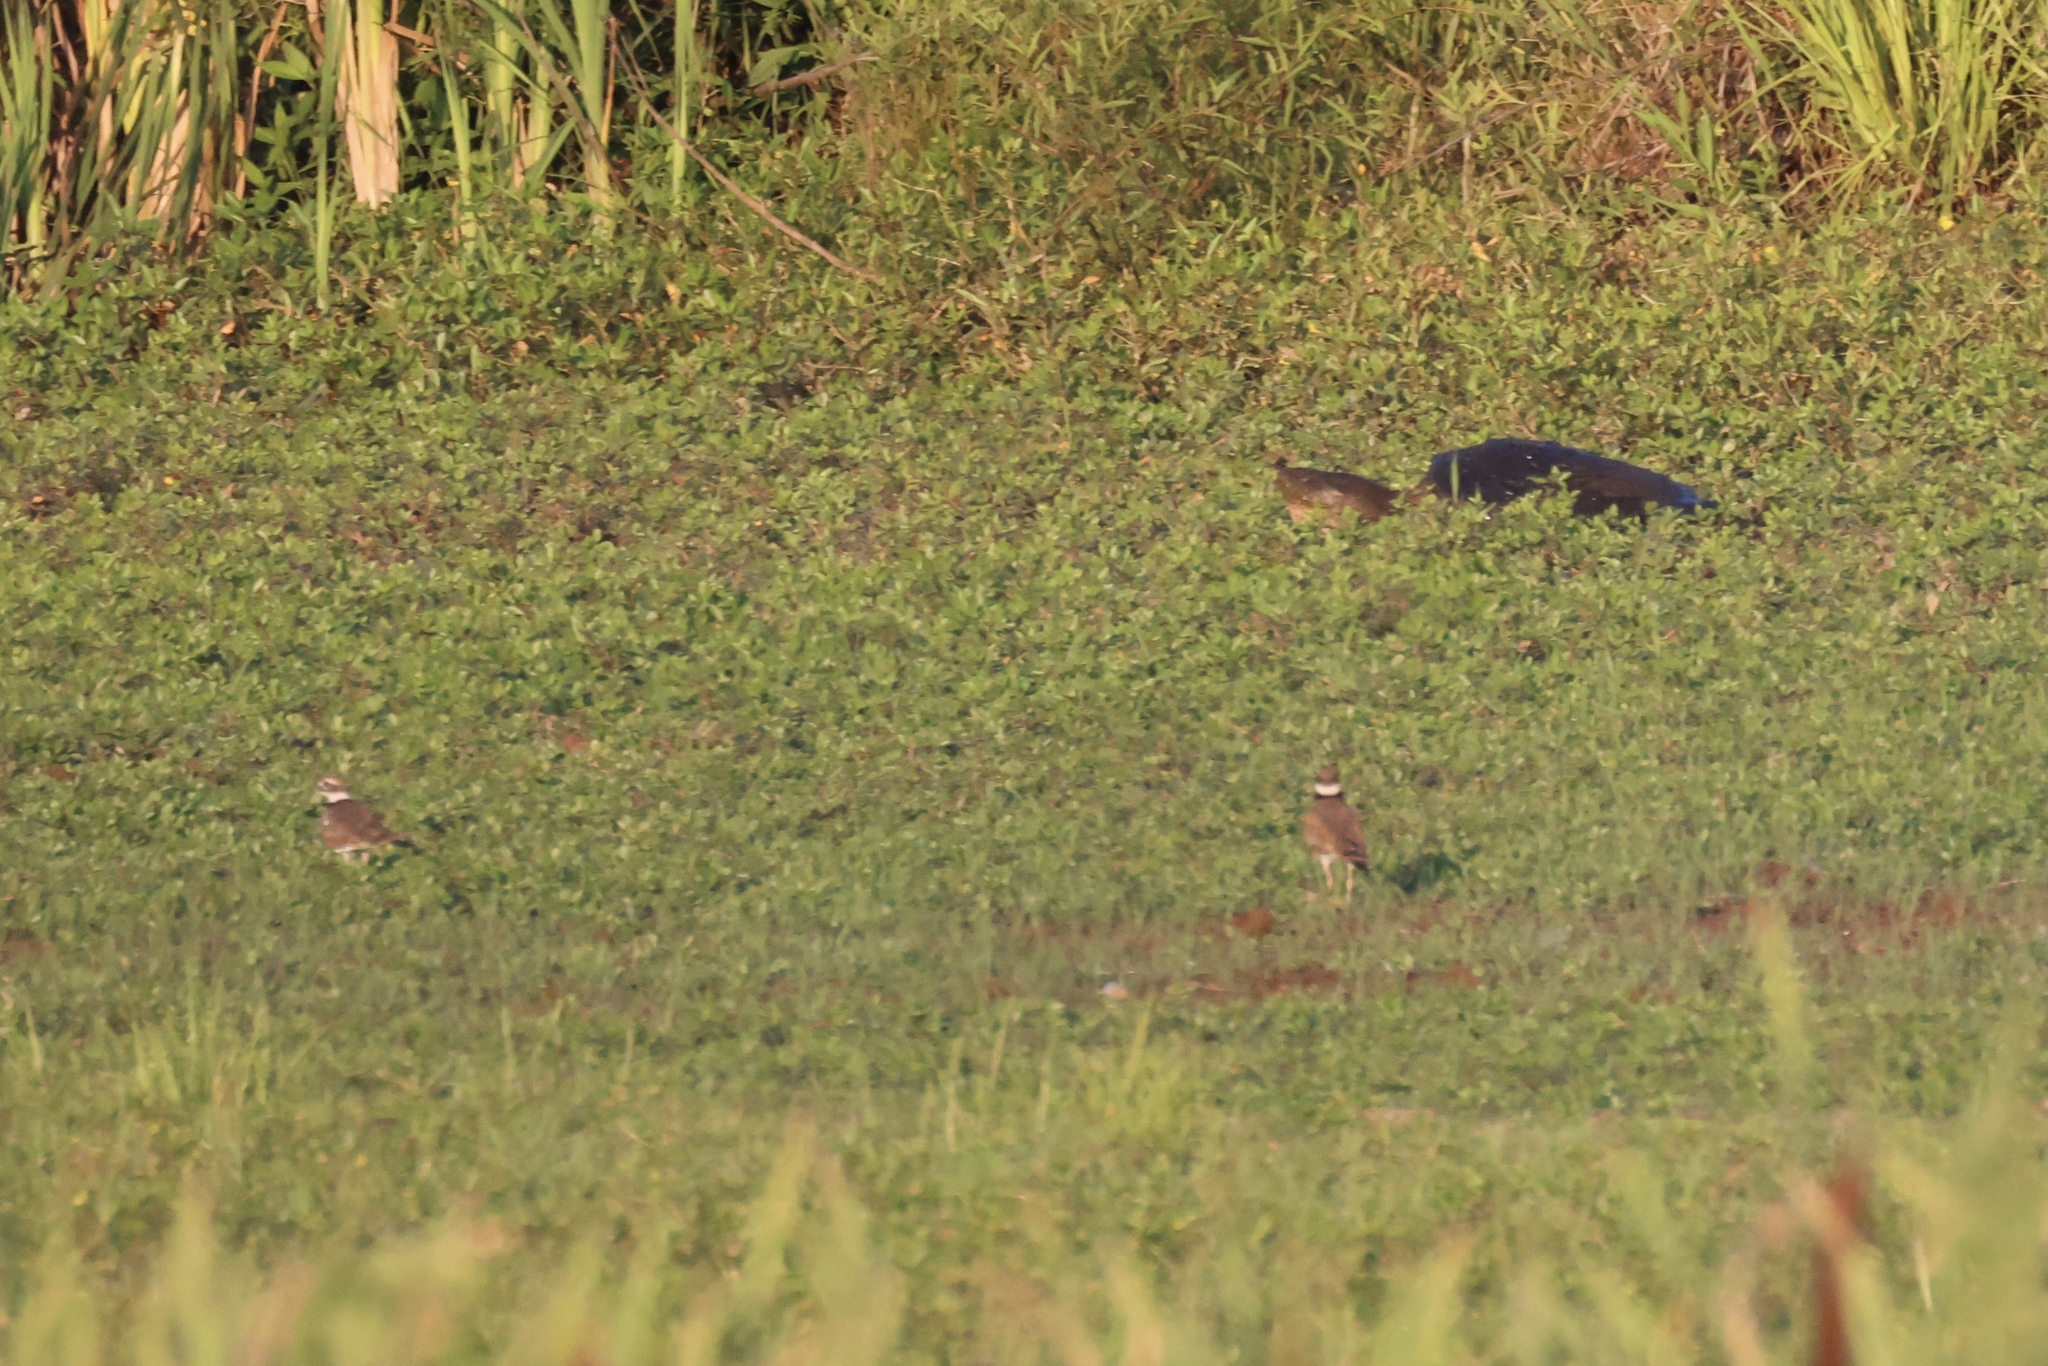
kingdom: Animalia
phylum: Chordata
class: Testudines
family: Chelydridae
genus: Chelydra
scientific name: Chelydra serpentina
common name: Common snapping turtle
